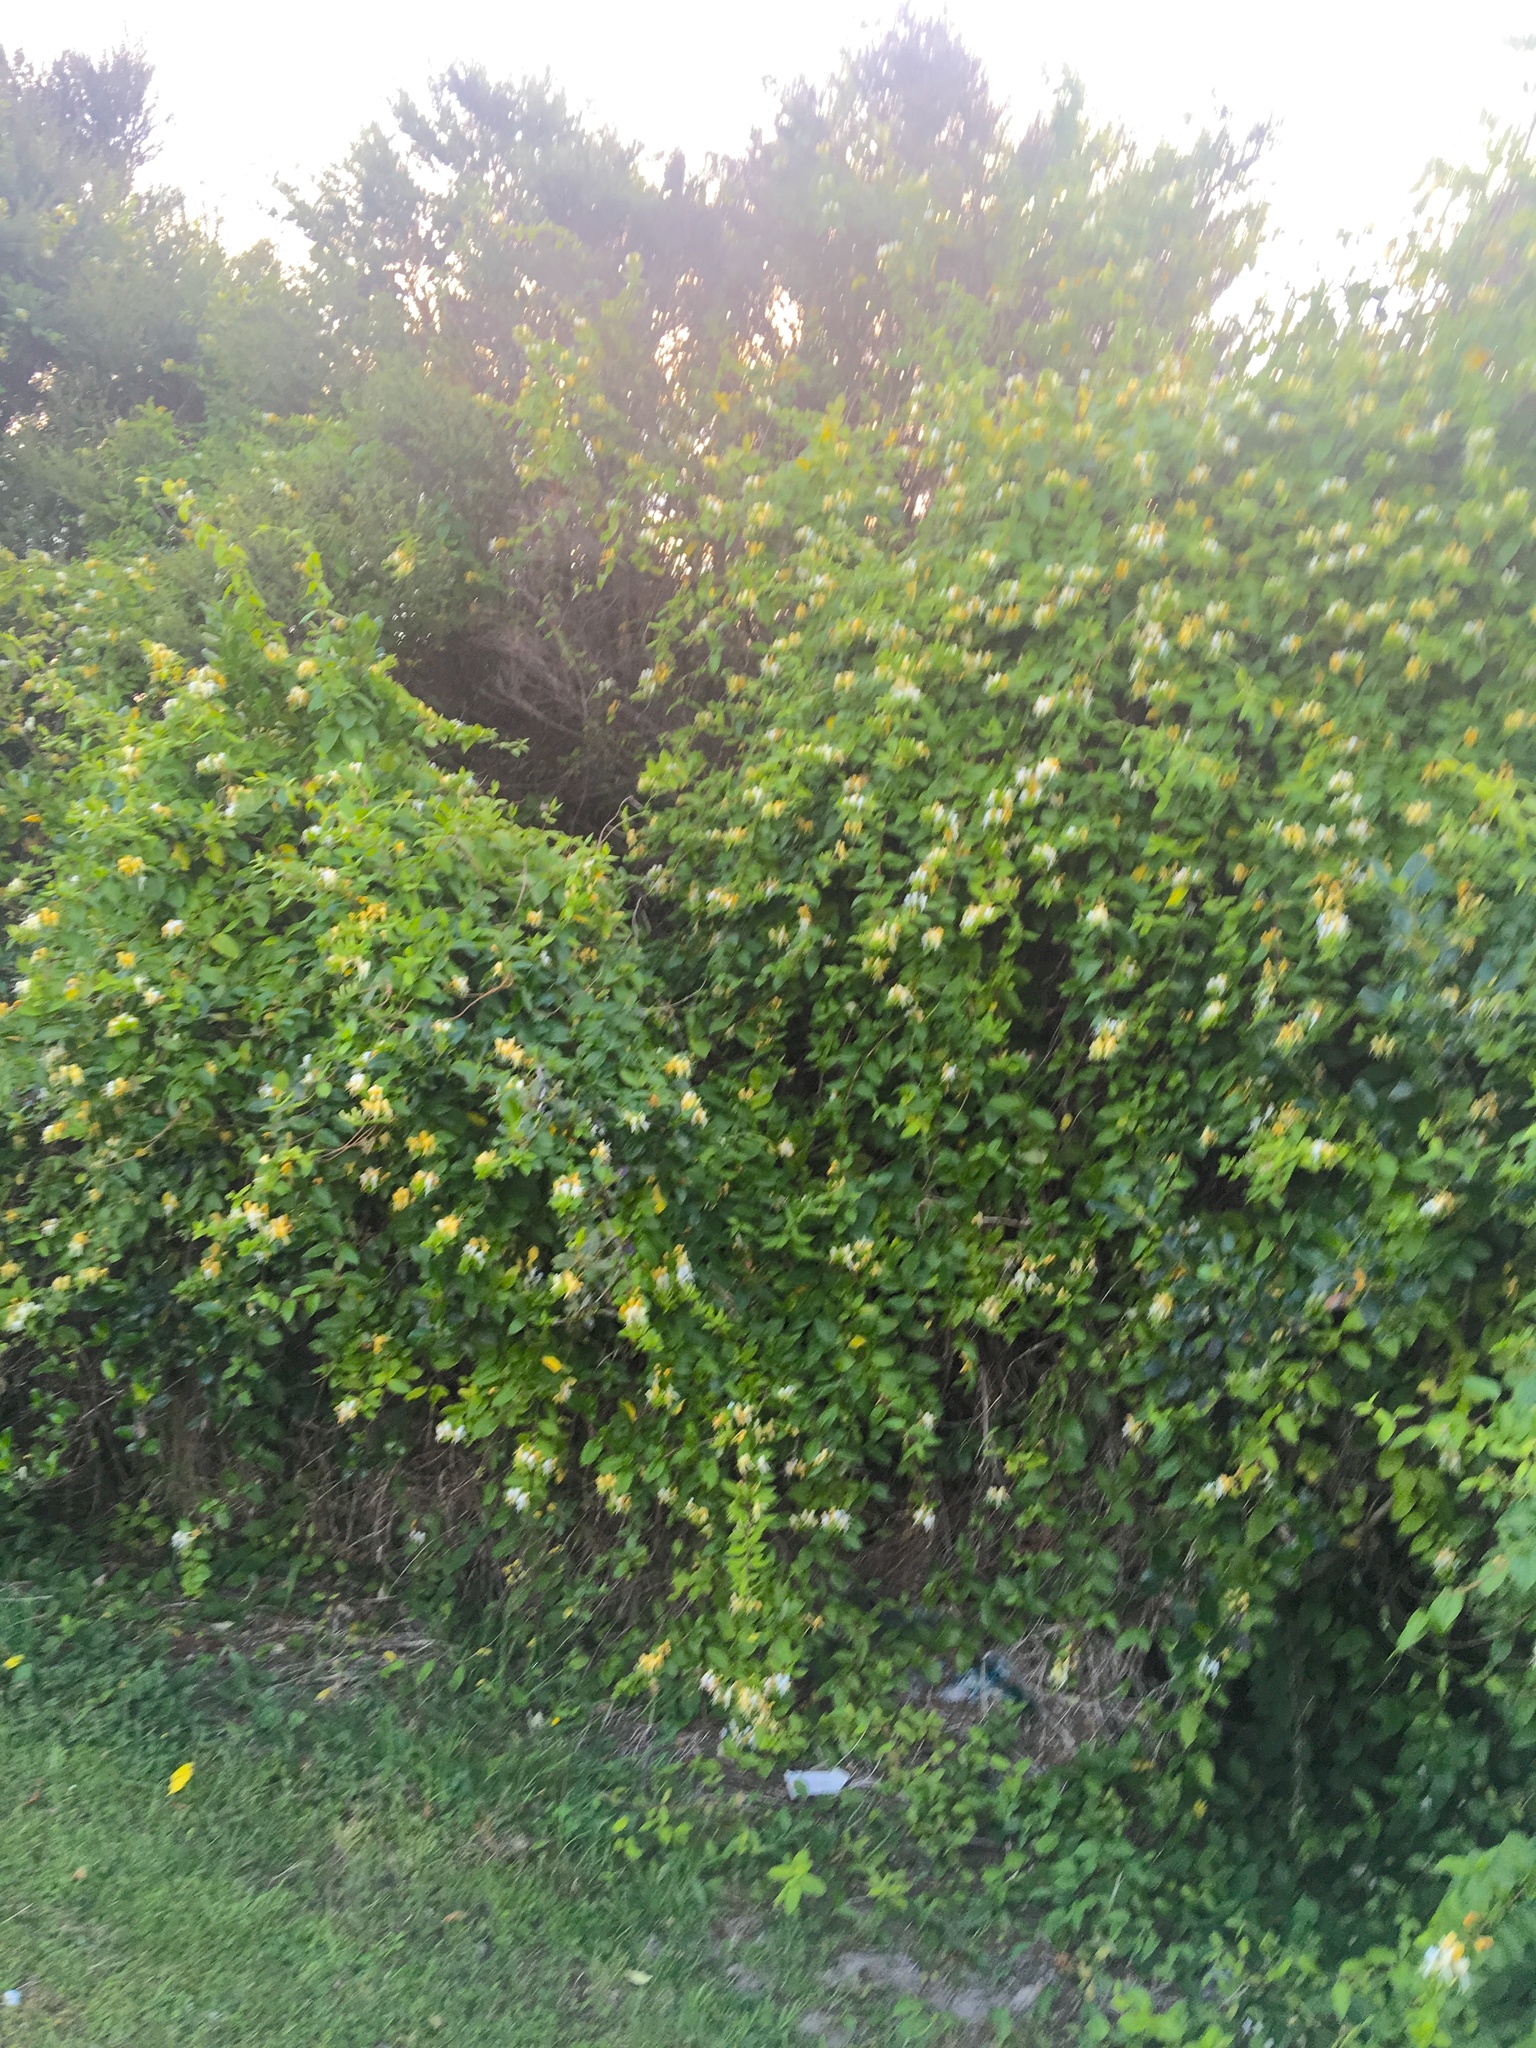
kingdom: Plantae
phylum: Tracheophyta
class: Magnoliopsida
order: Dipsacales
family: Caprifoliaceae
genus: Lonicera
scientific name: Lonicera japonica
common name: Japanese honeysuckle
